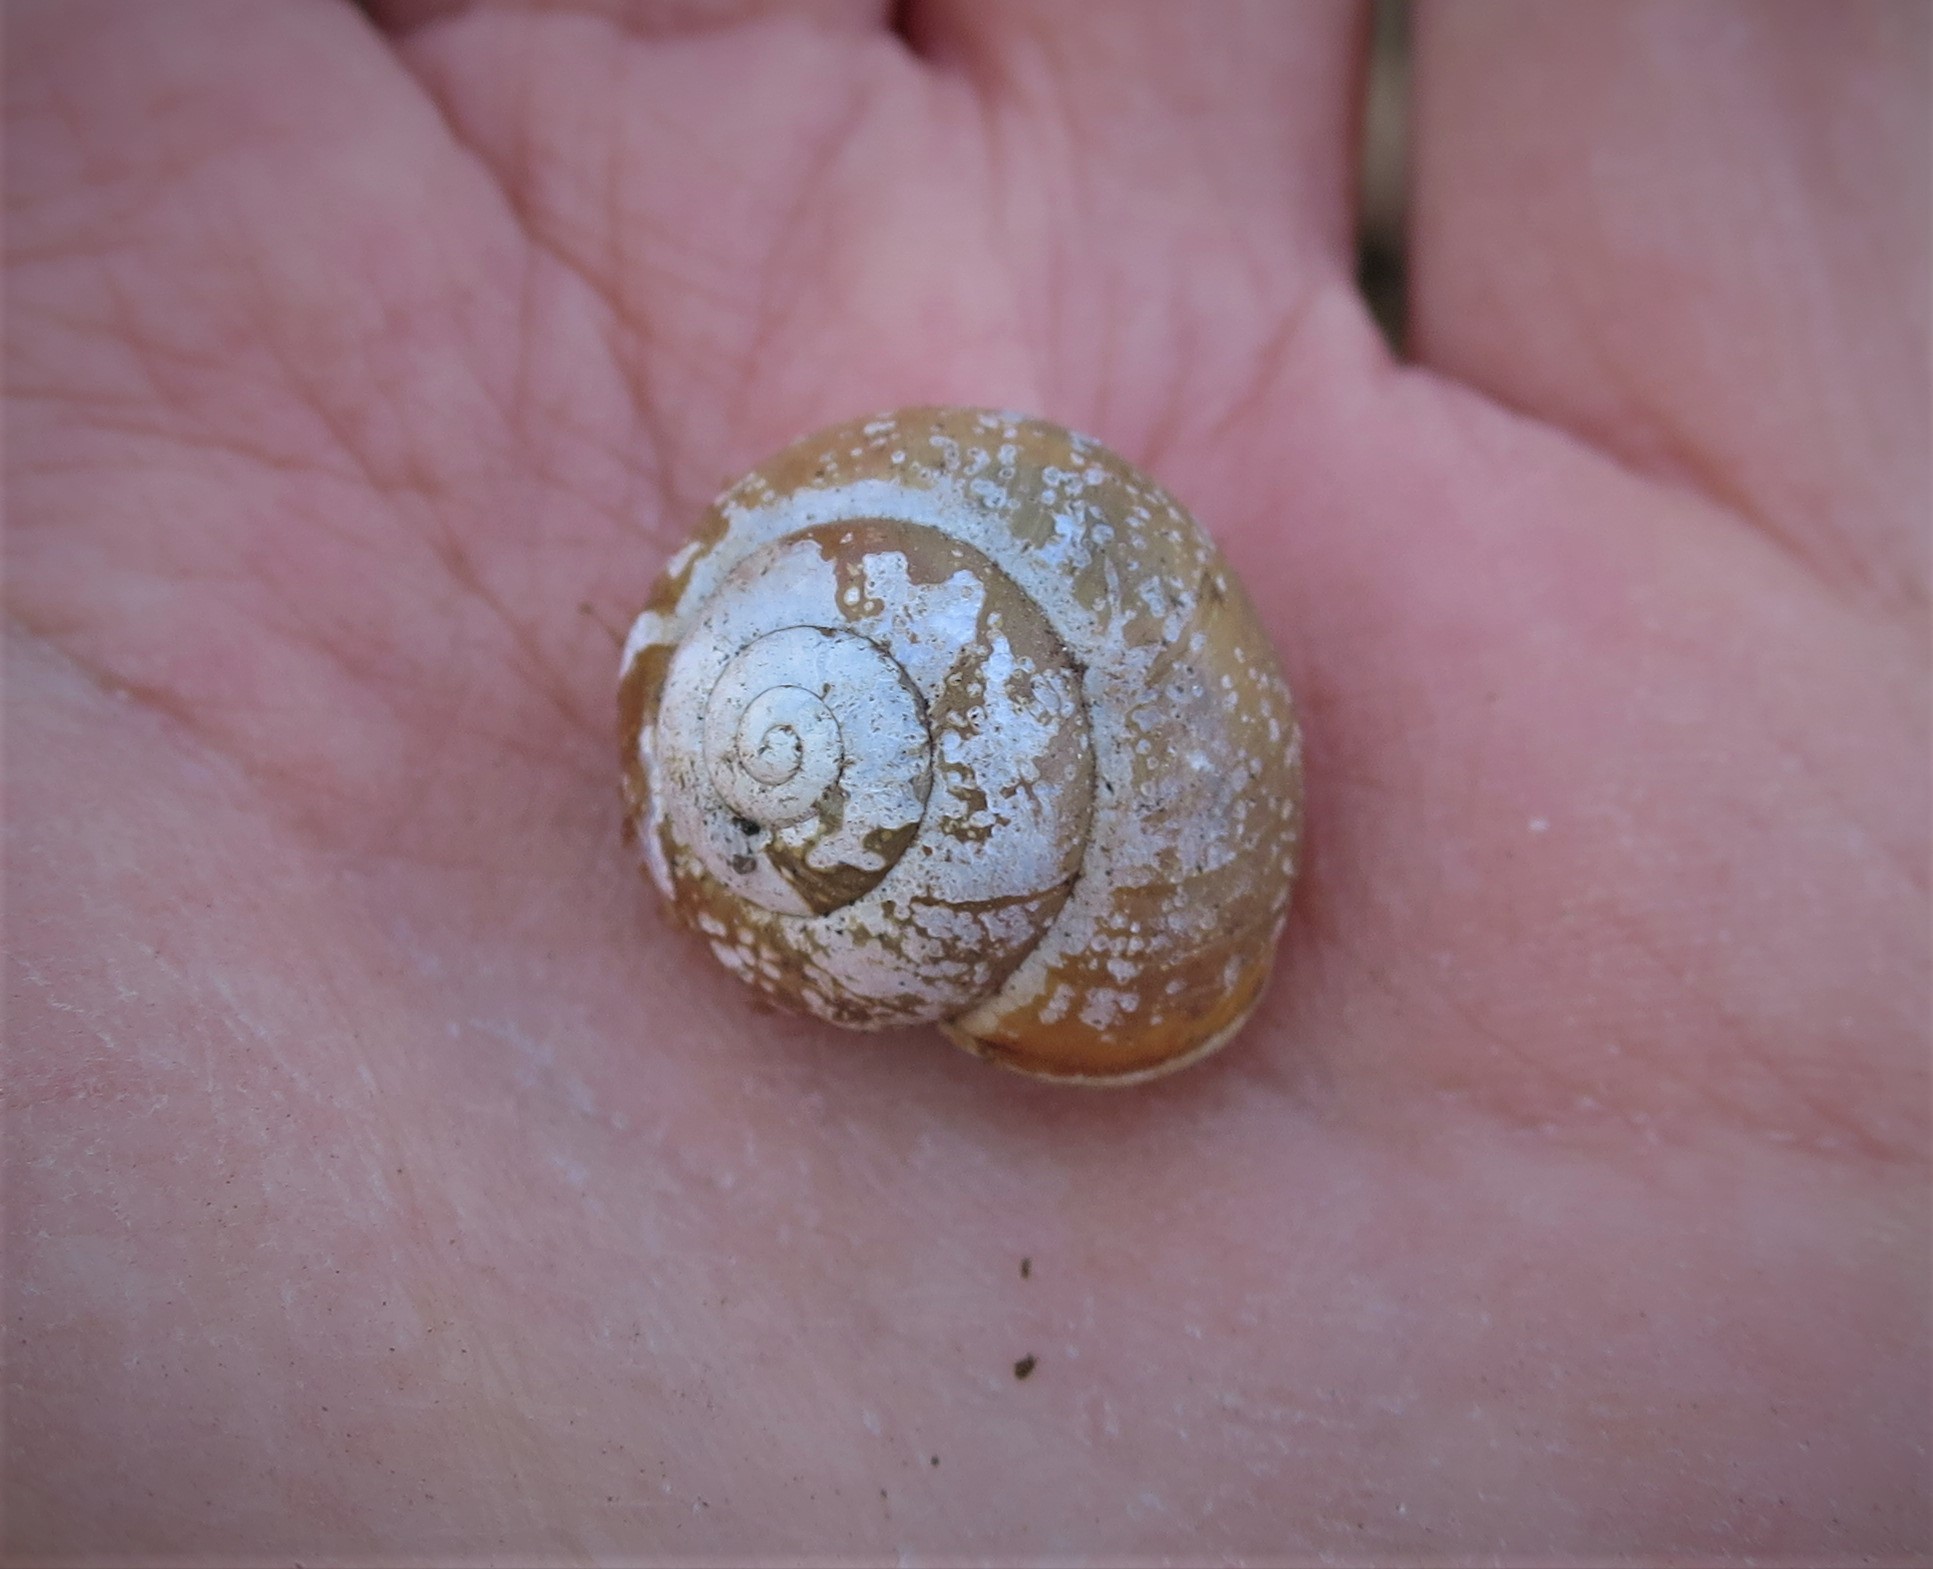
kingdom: Animalia
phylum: Mollusca
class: Gastropoda
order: Stylommatophora
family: Helicidae
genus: Cepaea
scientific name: Cepaea hortensis
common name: White-lip gardensnail
